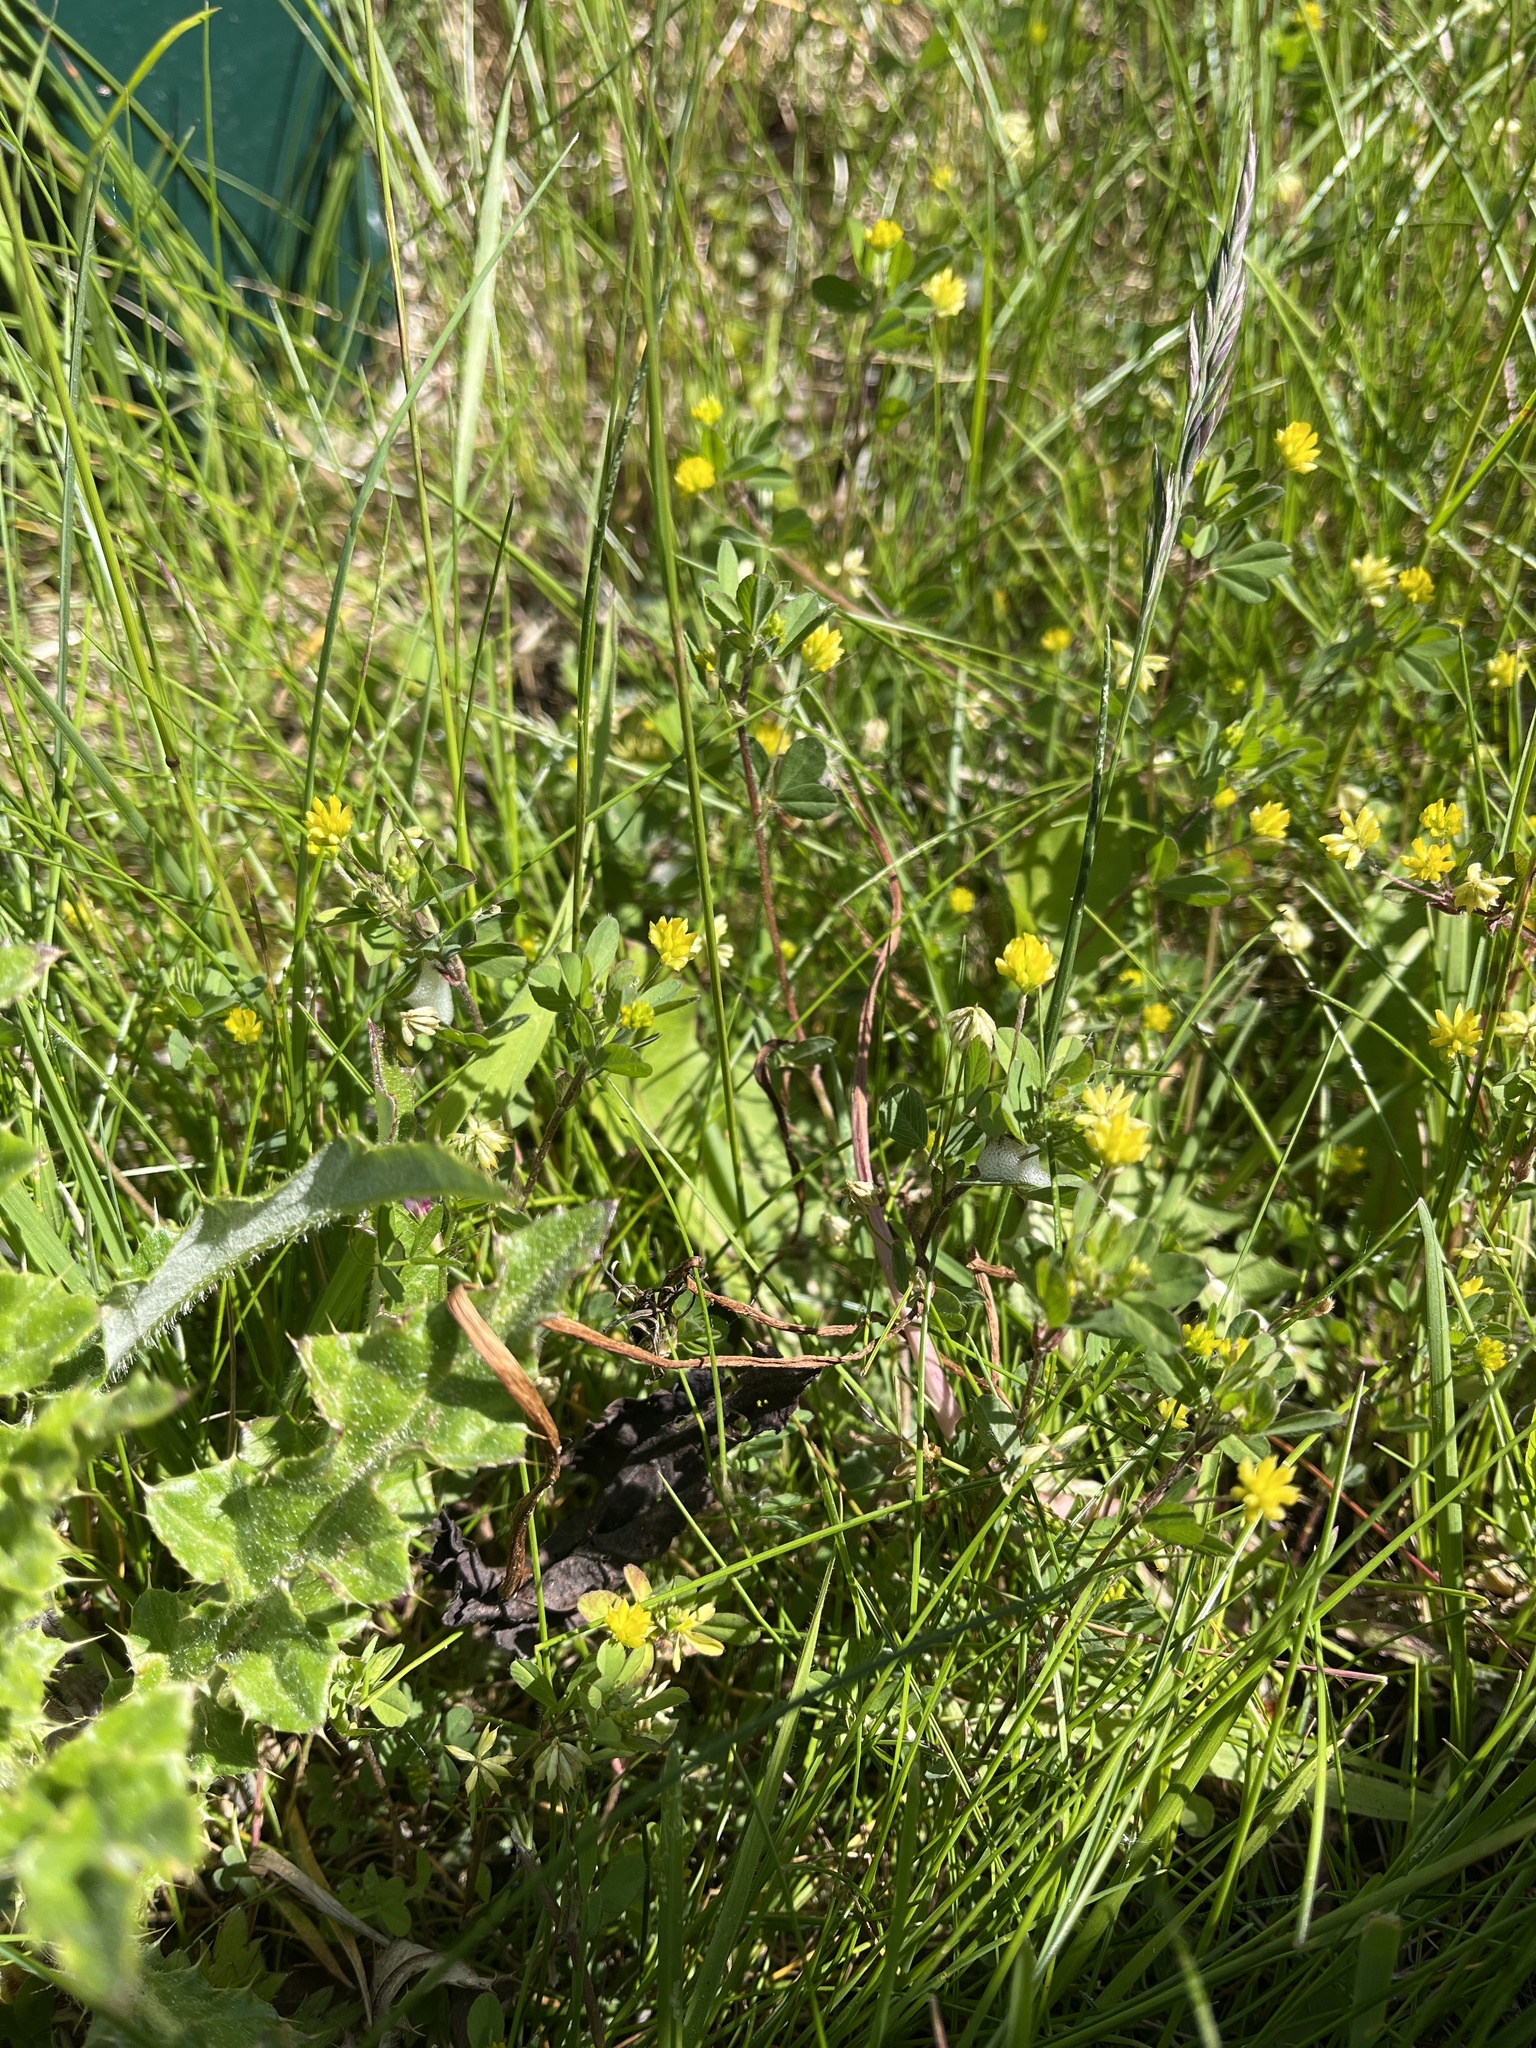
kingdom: Plantae
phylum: Tracheophyta
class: Magnoliopsida
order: Fabales
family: Fabaceae
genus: Trifolium
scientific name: Trifolium dubium
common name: Suckling clover
